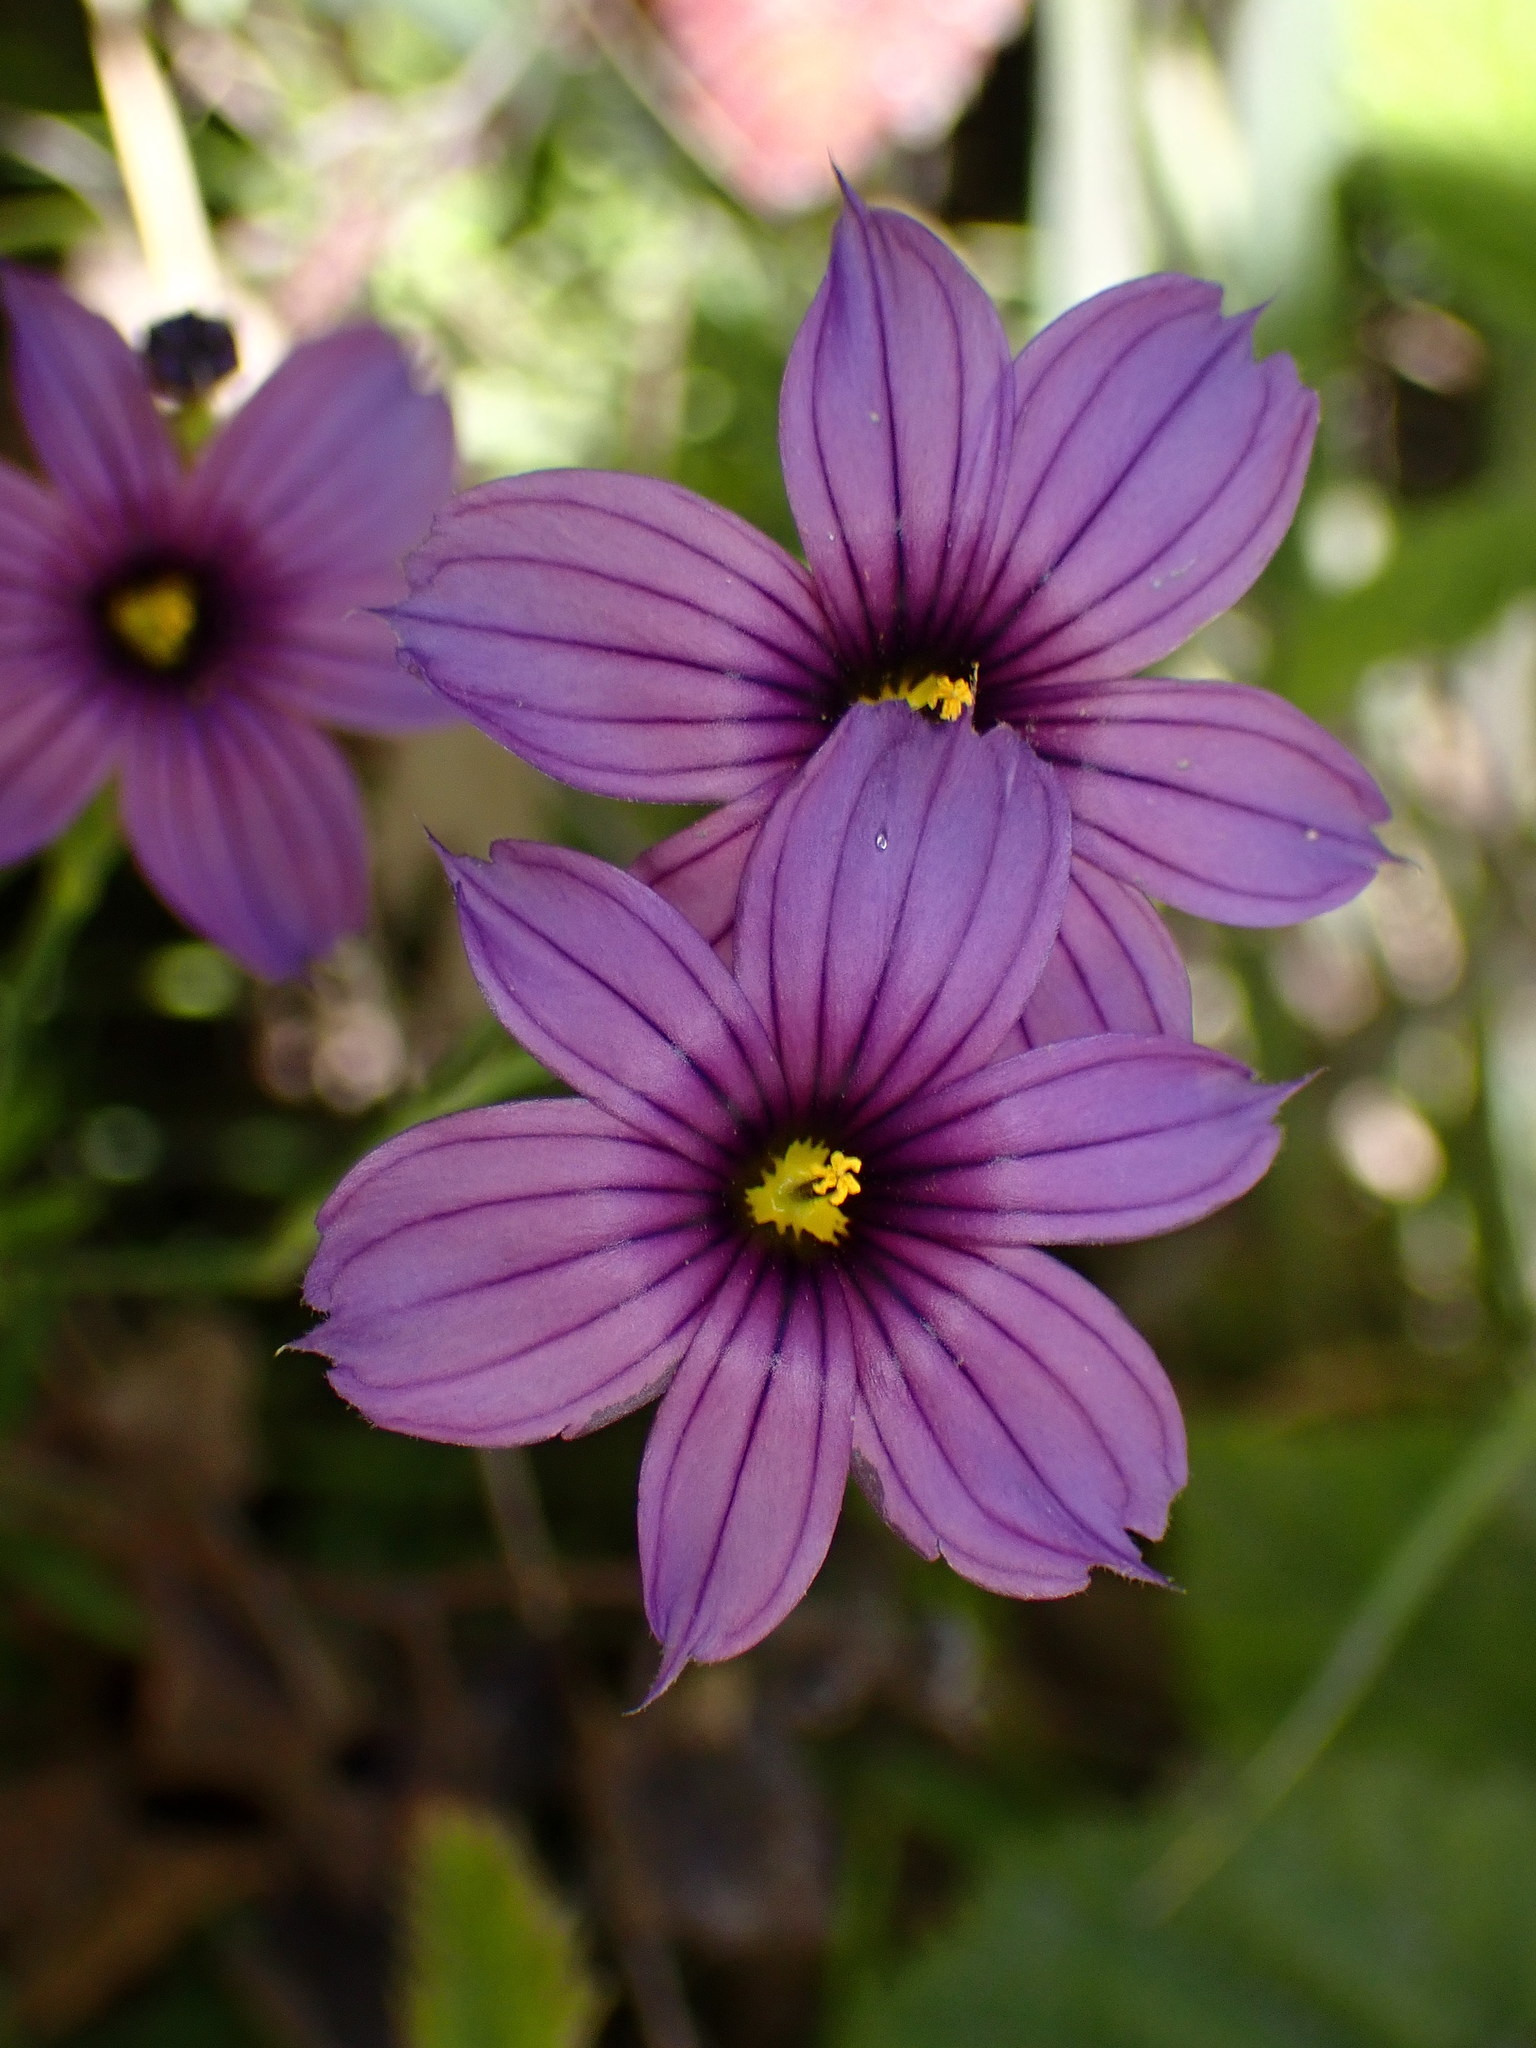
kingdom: Plantae
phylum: Tracheophyta
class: Liliopsida
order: Asparagales
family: Iridaceae
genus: Sisyrinchium
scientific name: Sisyrinchium bellum
